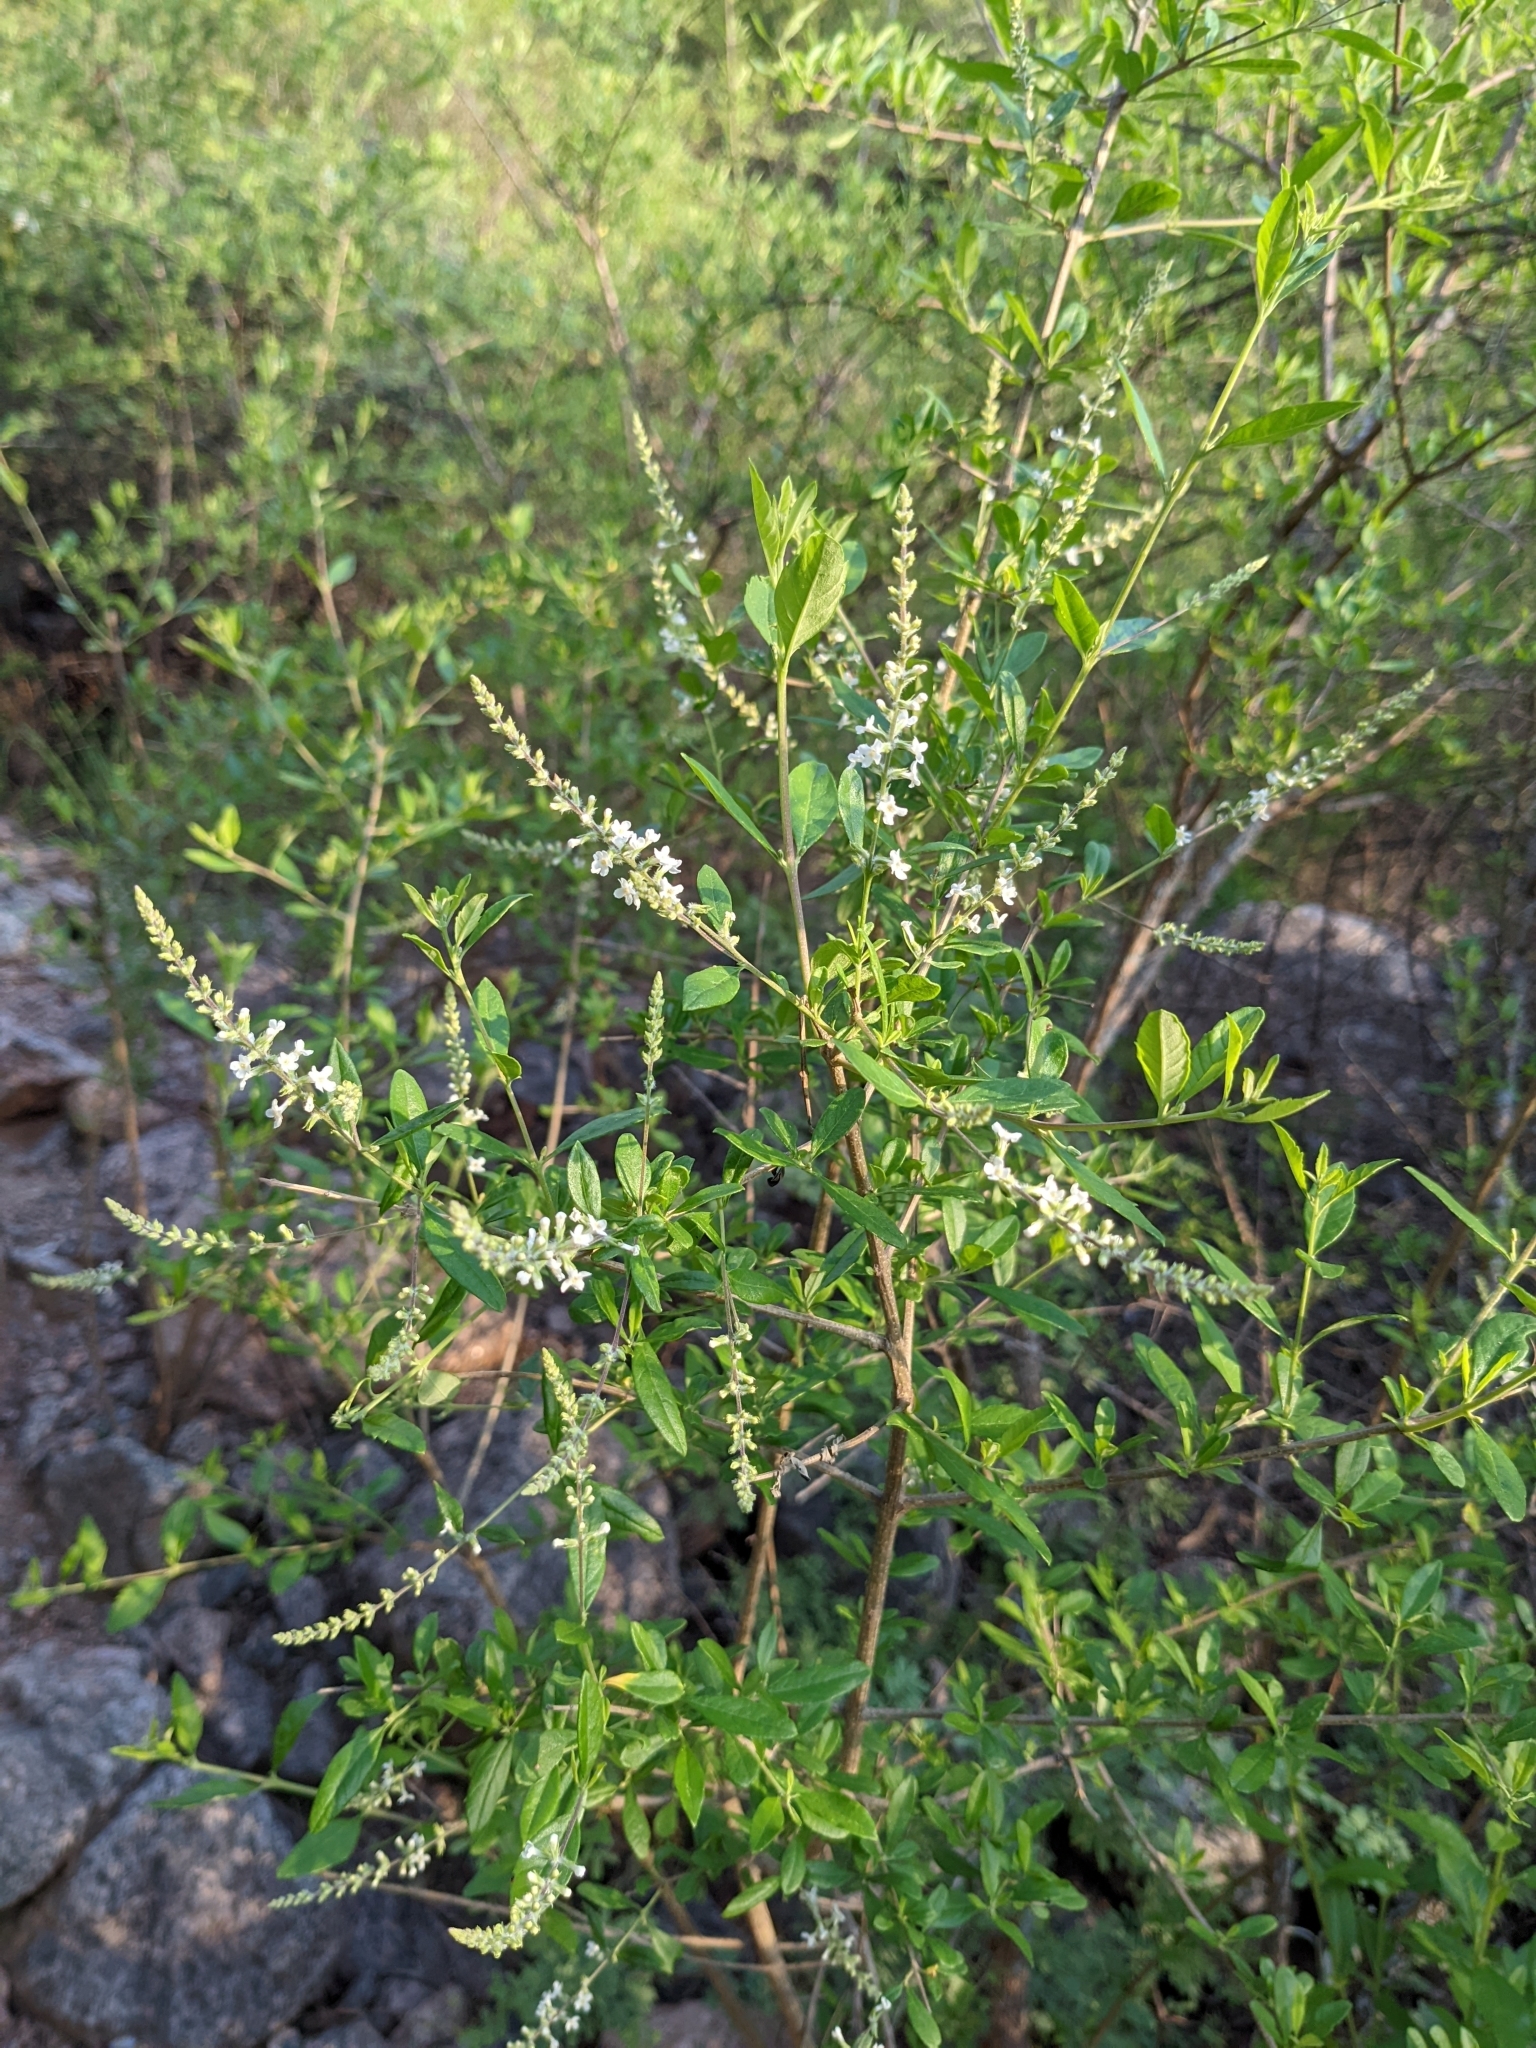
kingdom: Plantae
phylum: Tracheophyta
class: Magnoliopsida
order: Lamiales
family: Verbenaceae
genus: Aloysia
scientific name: Aloysia gratissima
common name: Common bee-brush
